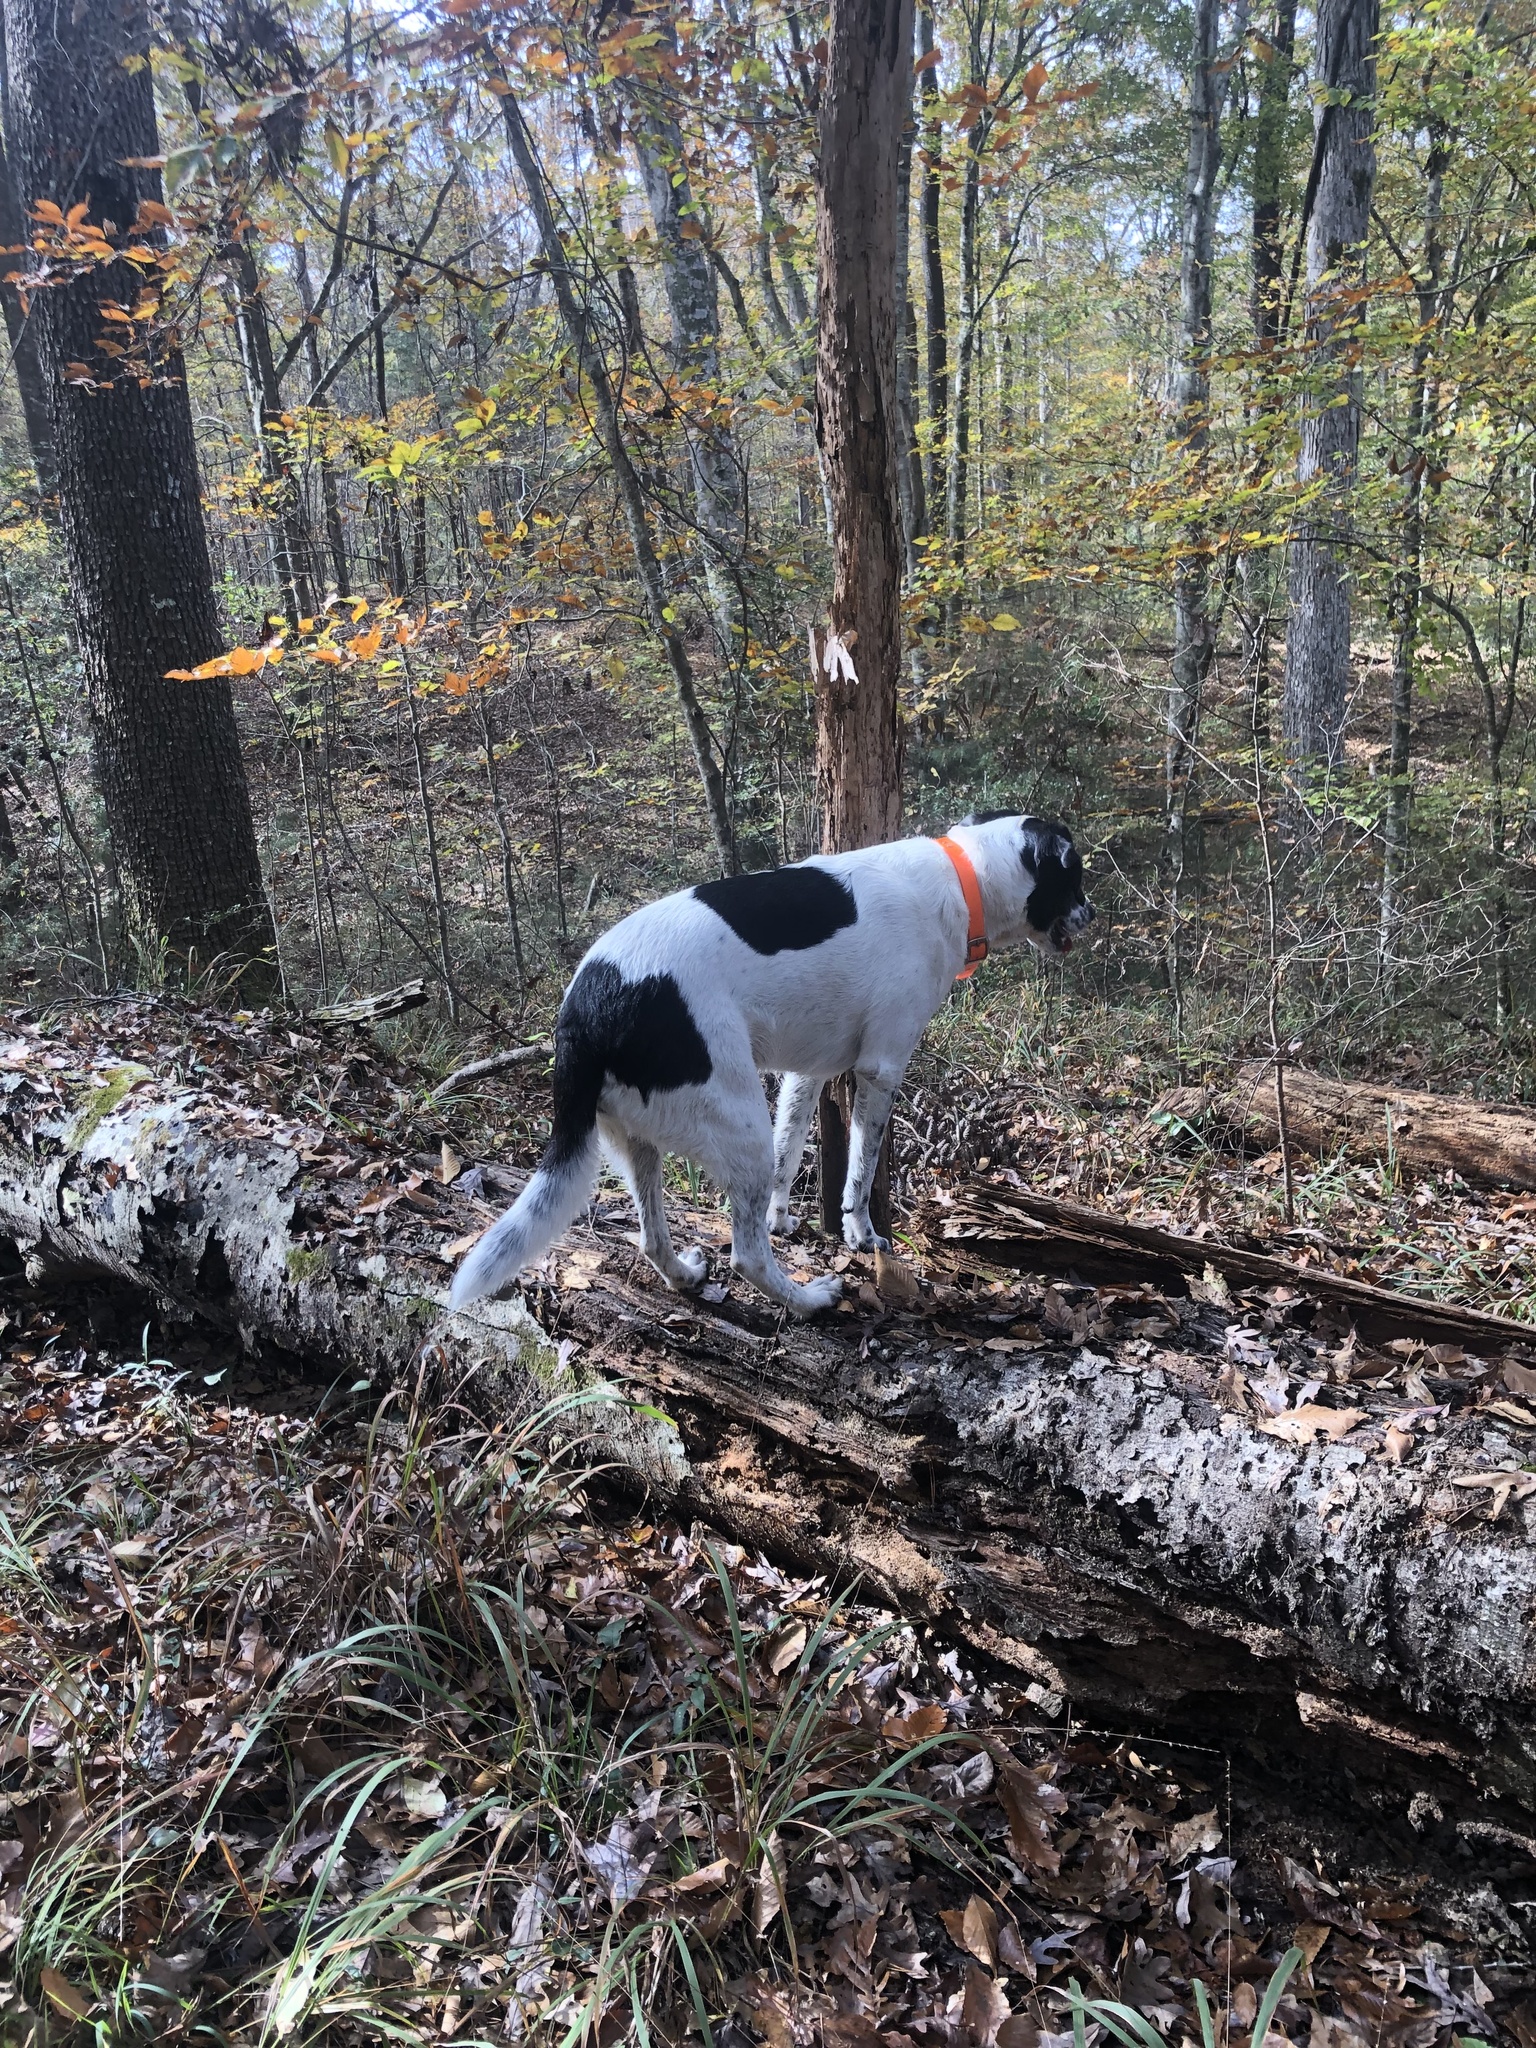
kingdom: Plantae
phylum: Tracheophyta
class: Magnoliopsida
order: Fagales
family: Fagaceae
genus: Fagus
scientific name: Fagus grandifolia
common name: American beech
